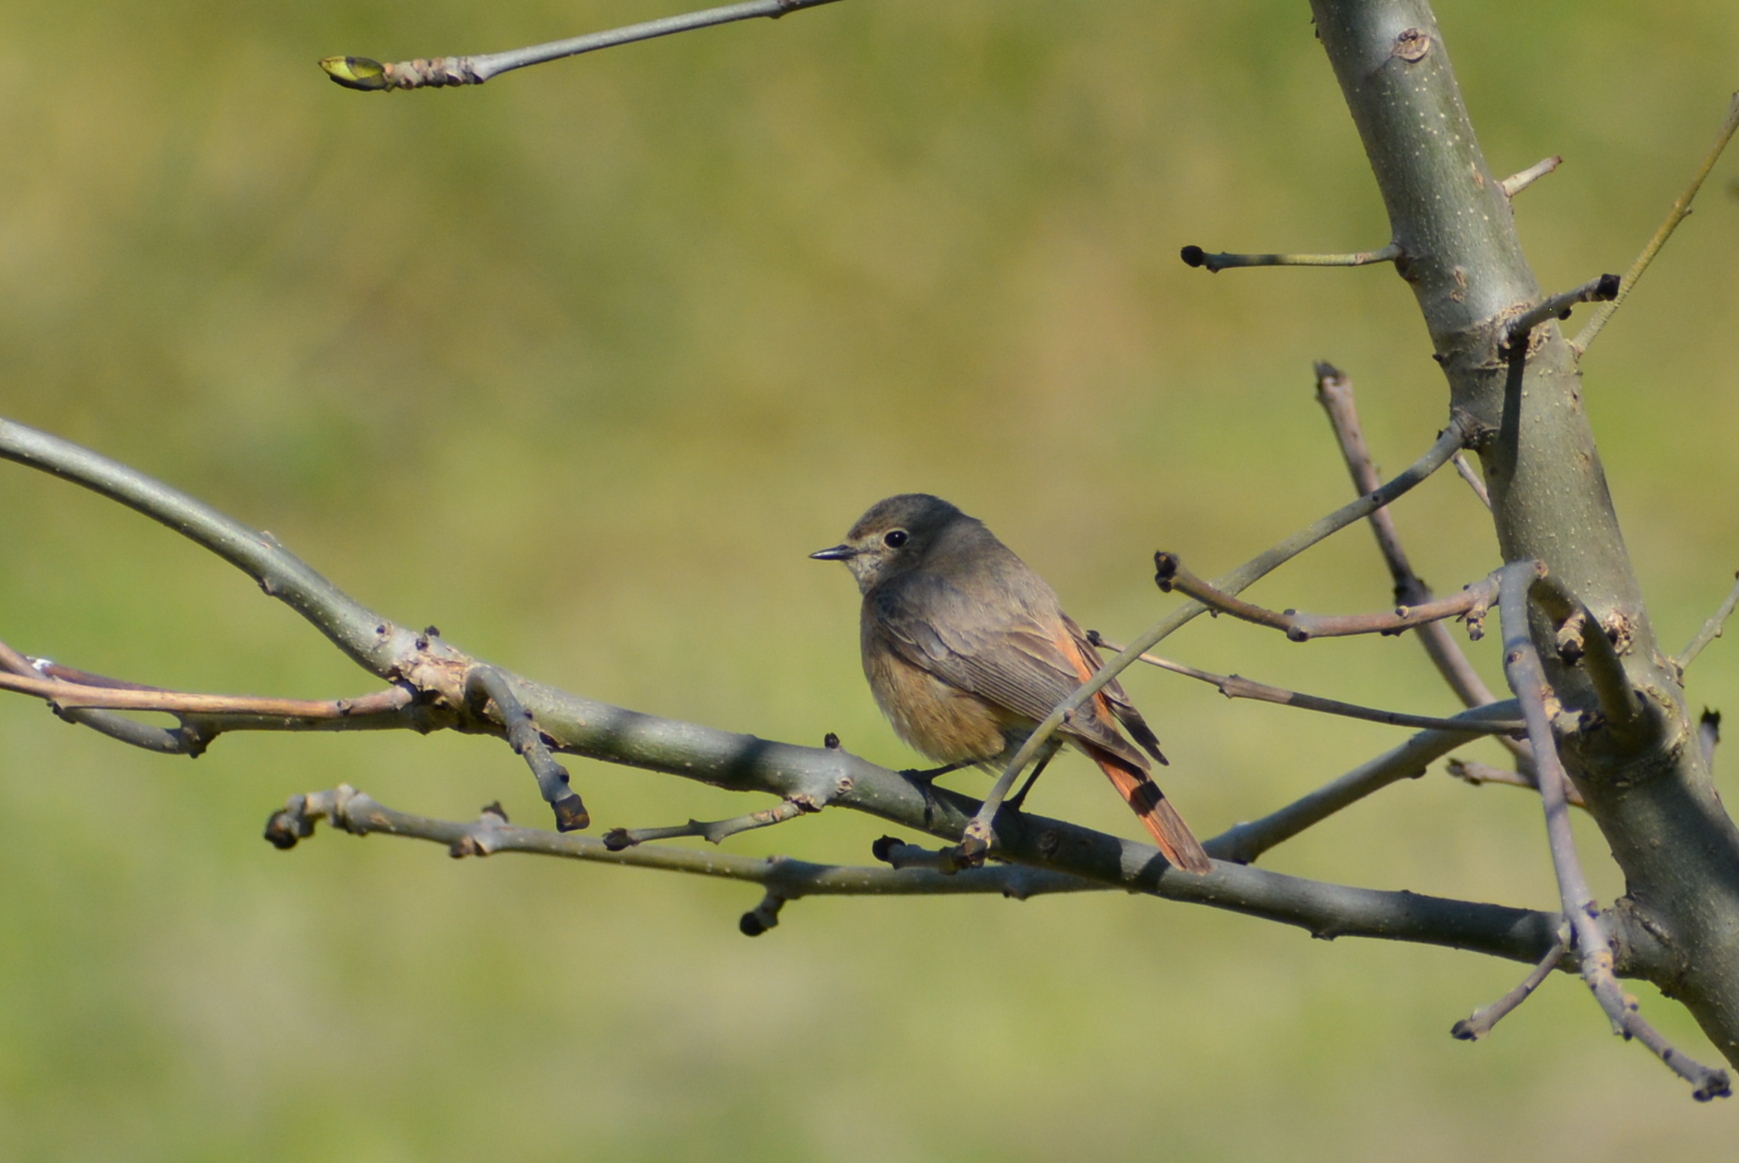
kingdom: Animalia
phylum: Chordata
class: Aves
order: Passeriformes
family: Muscicapidae
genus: Phoenicurus
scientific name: Phoenicurus phoenicurus
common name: Common redstart
